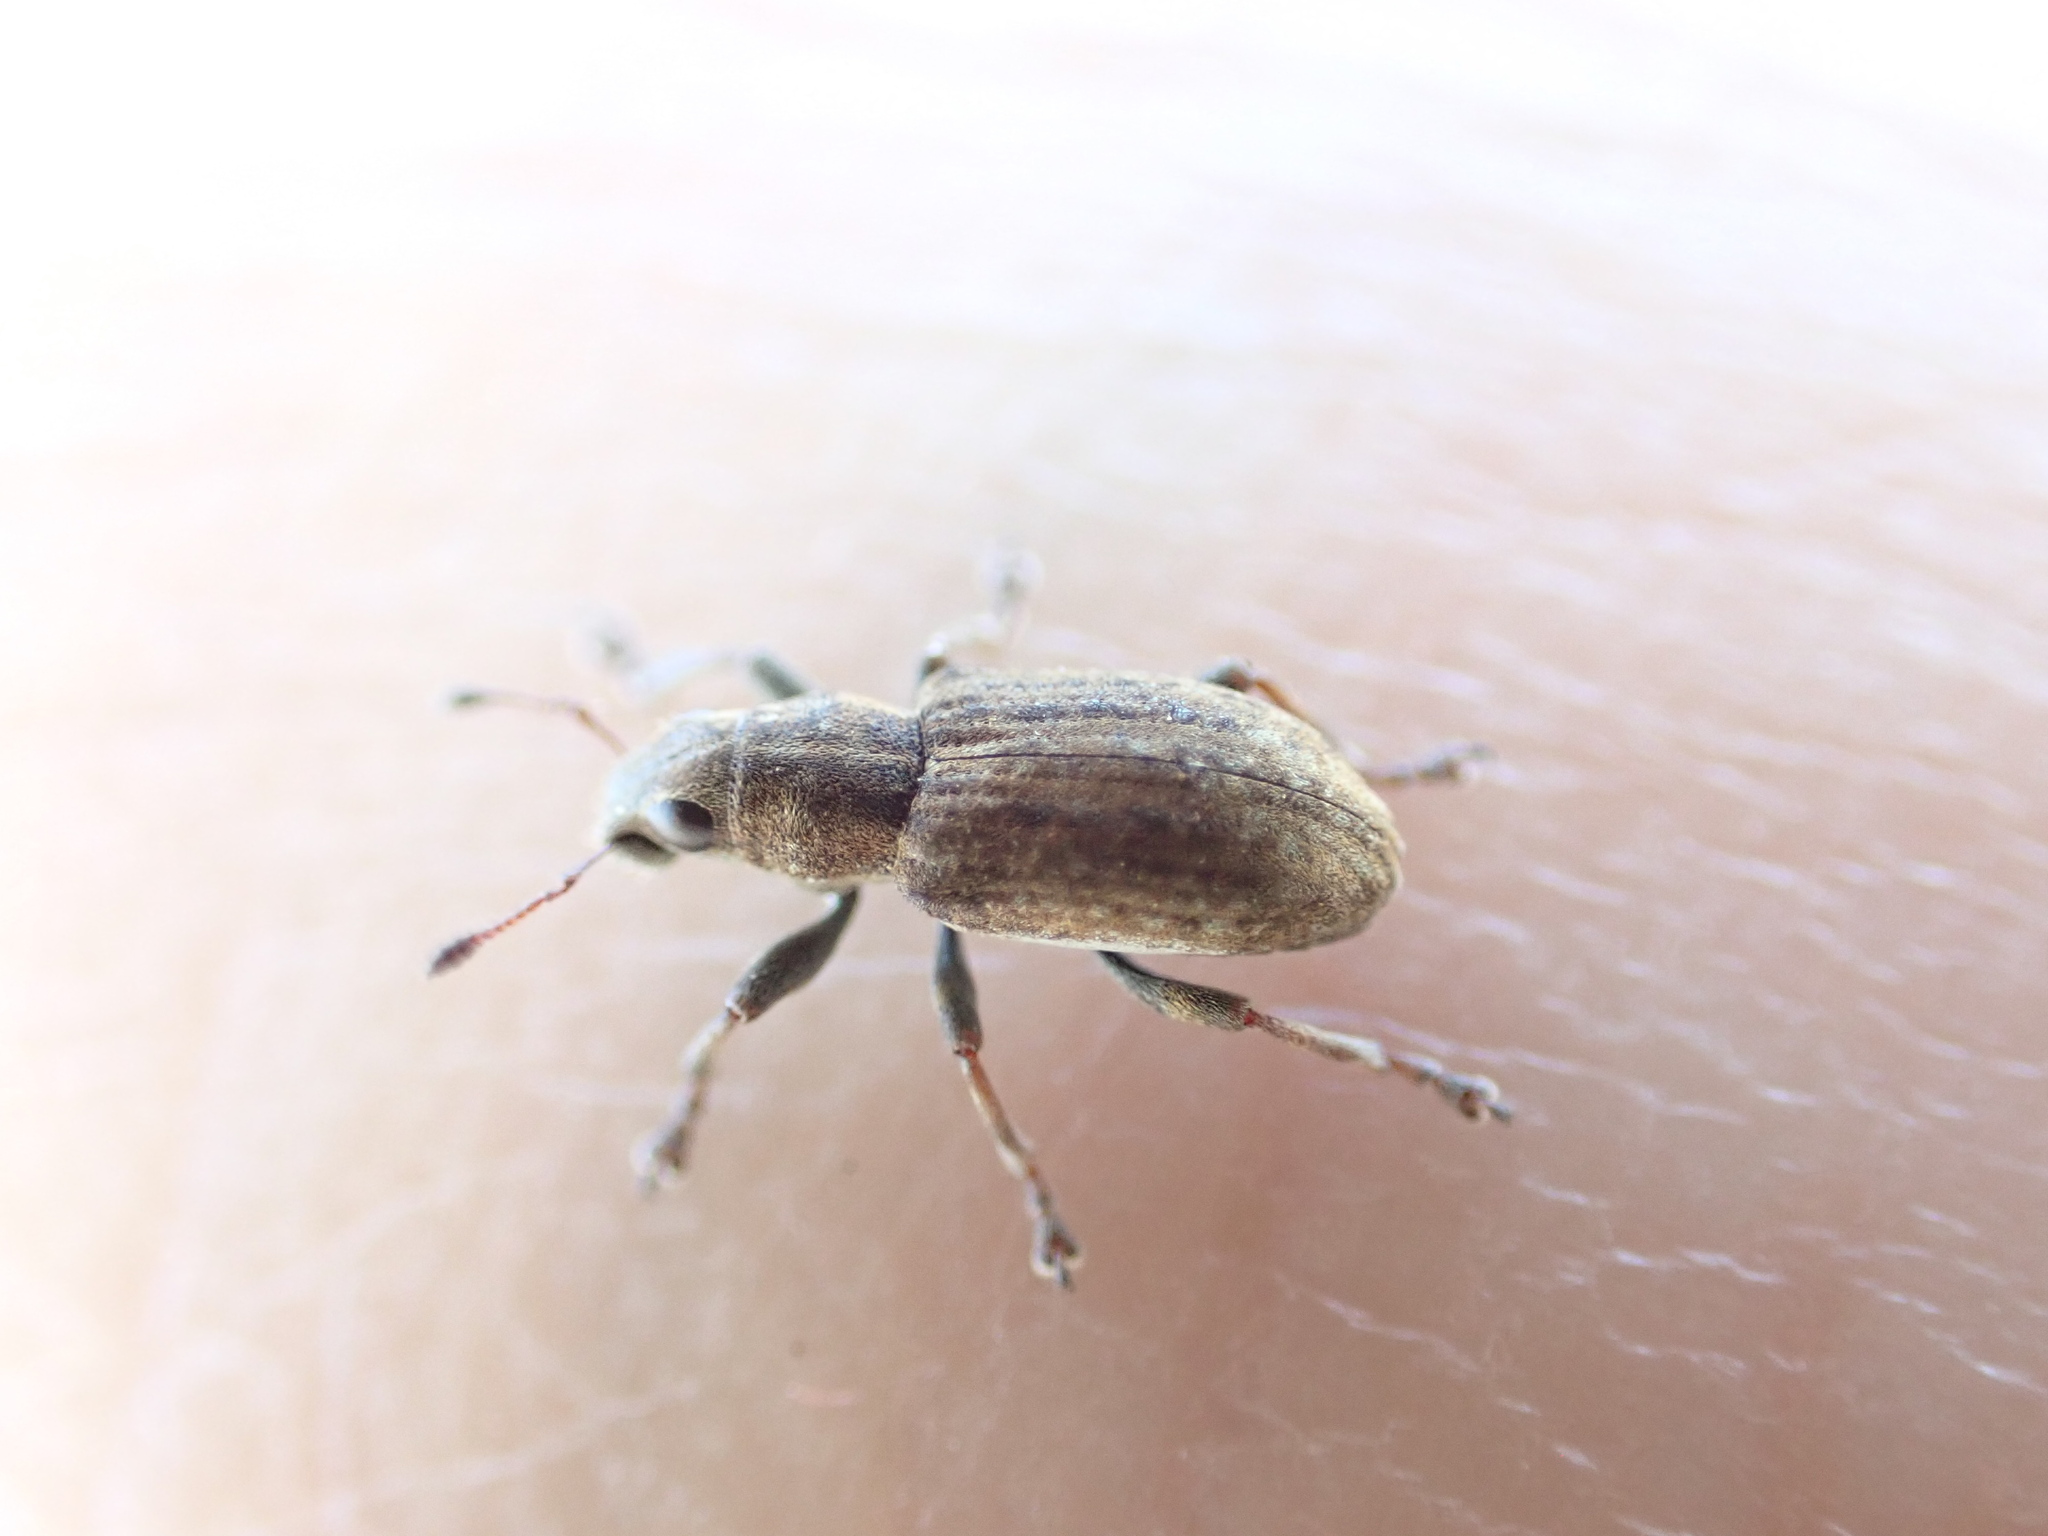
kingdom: Animalia
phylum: Arthropoda
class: Insecta
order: Coleoptera
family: Curculionidae
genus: Sitona
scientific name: Sitona obsoletus
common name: Weevil
